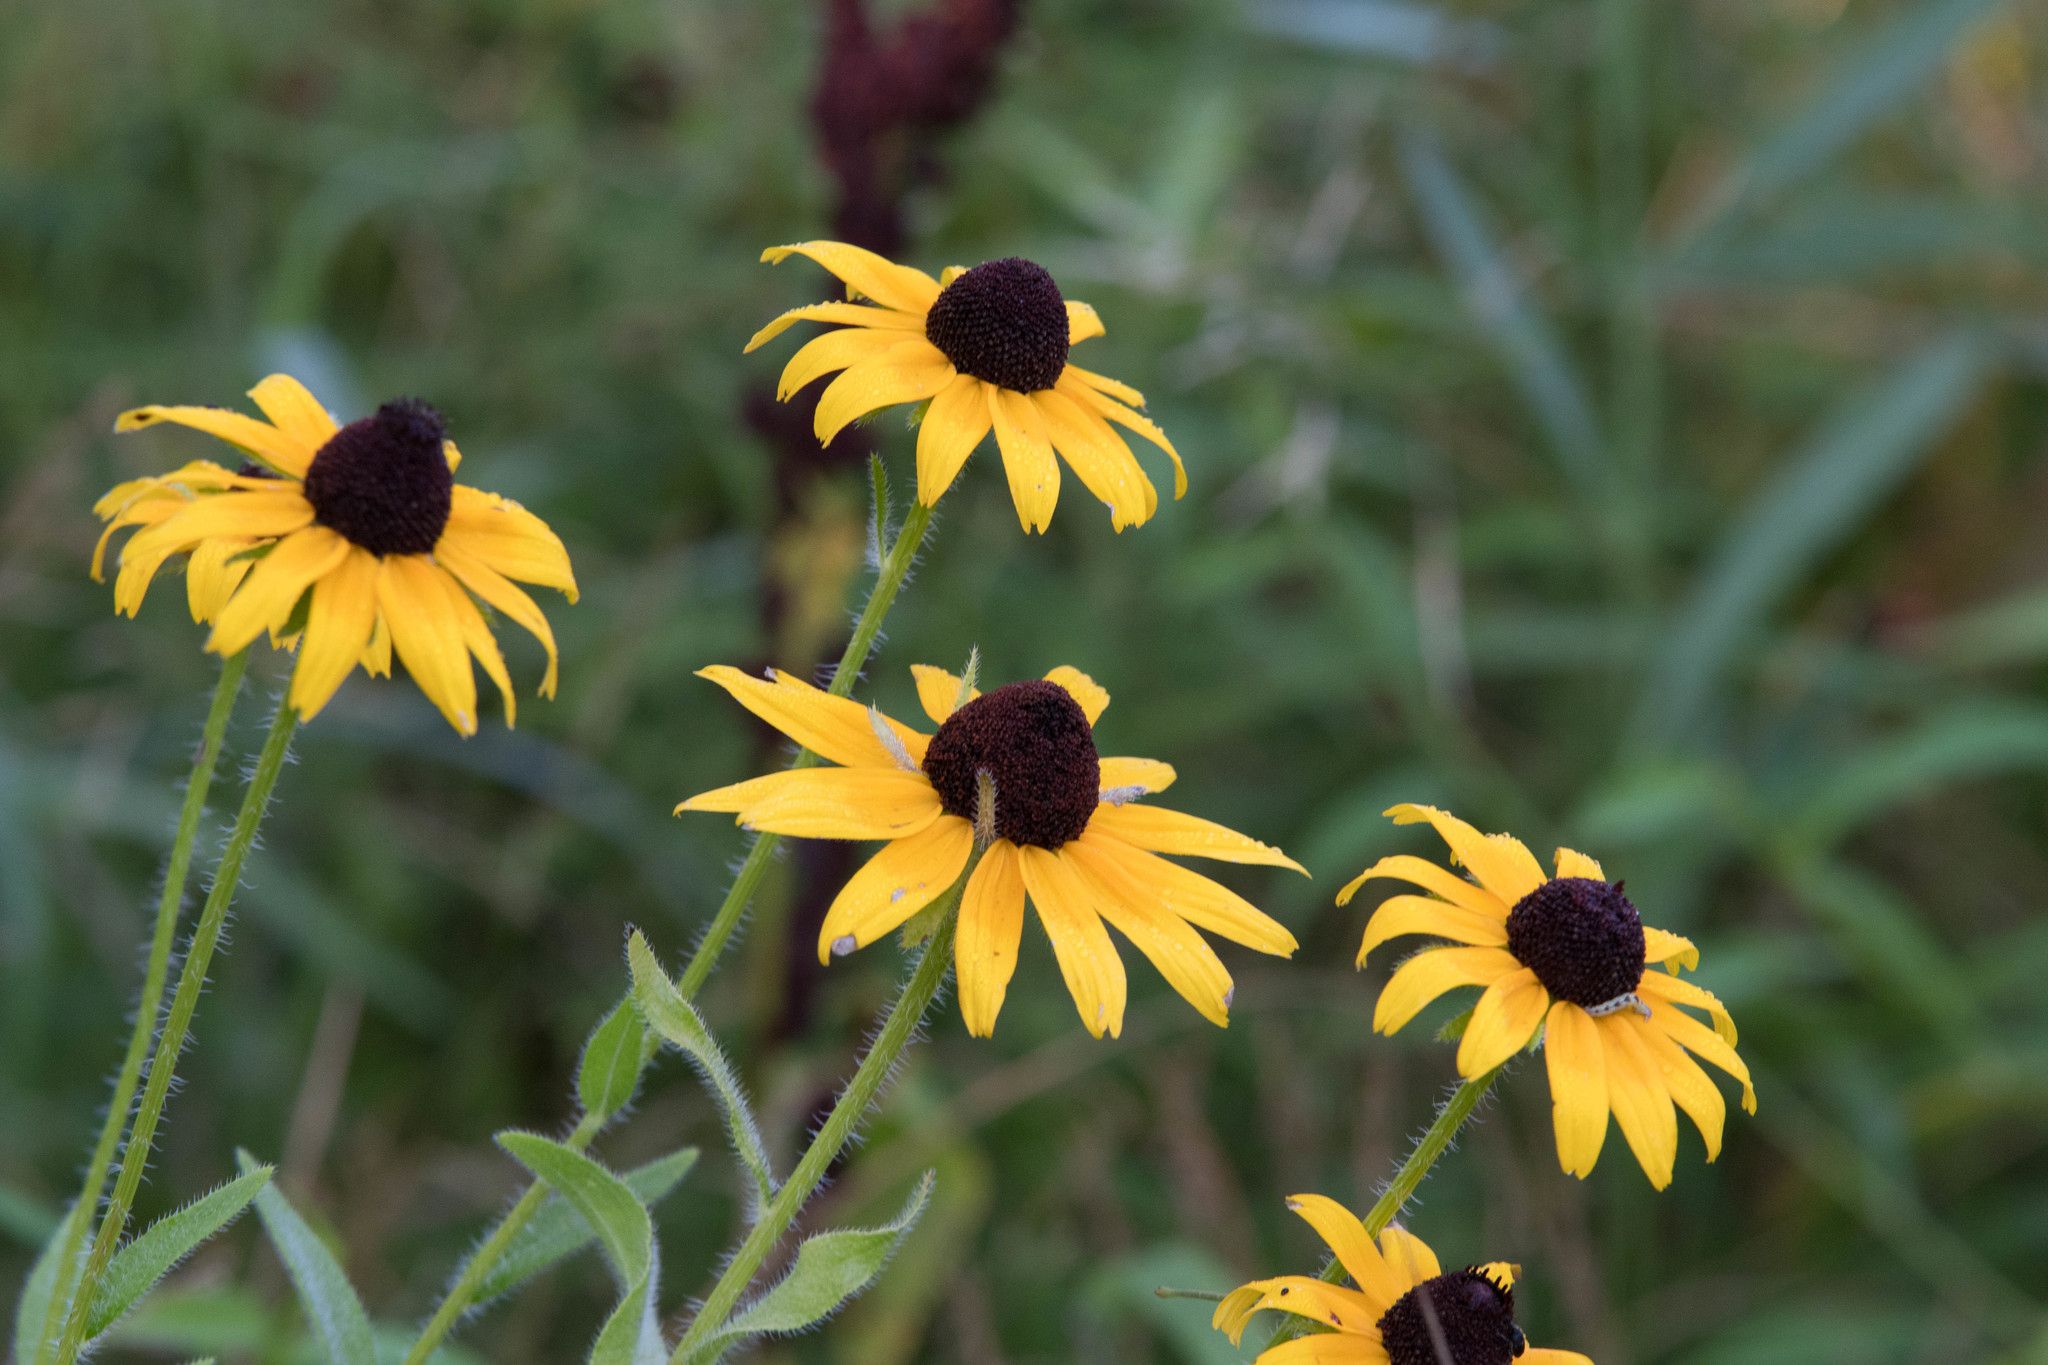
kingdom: Plantae
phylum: Tracheophyta
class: Magnoliopsida
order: Asterales
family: Asteraceae
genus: Rudbeckia
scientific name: Rudbeckia hirta
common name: Black-eyed-susan
